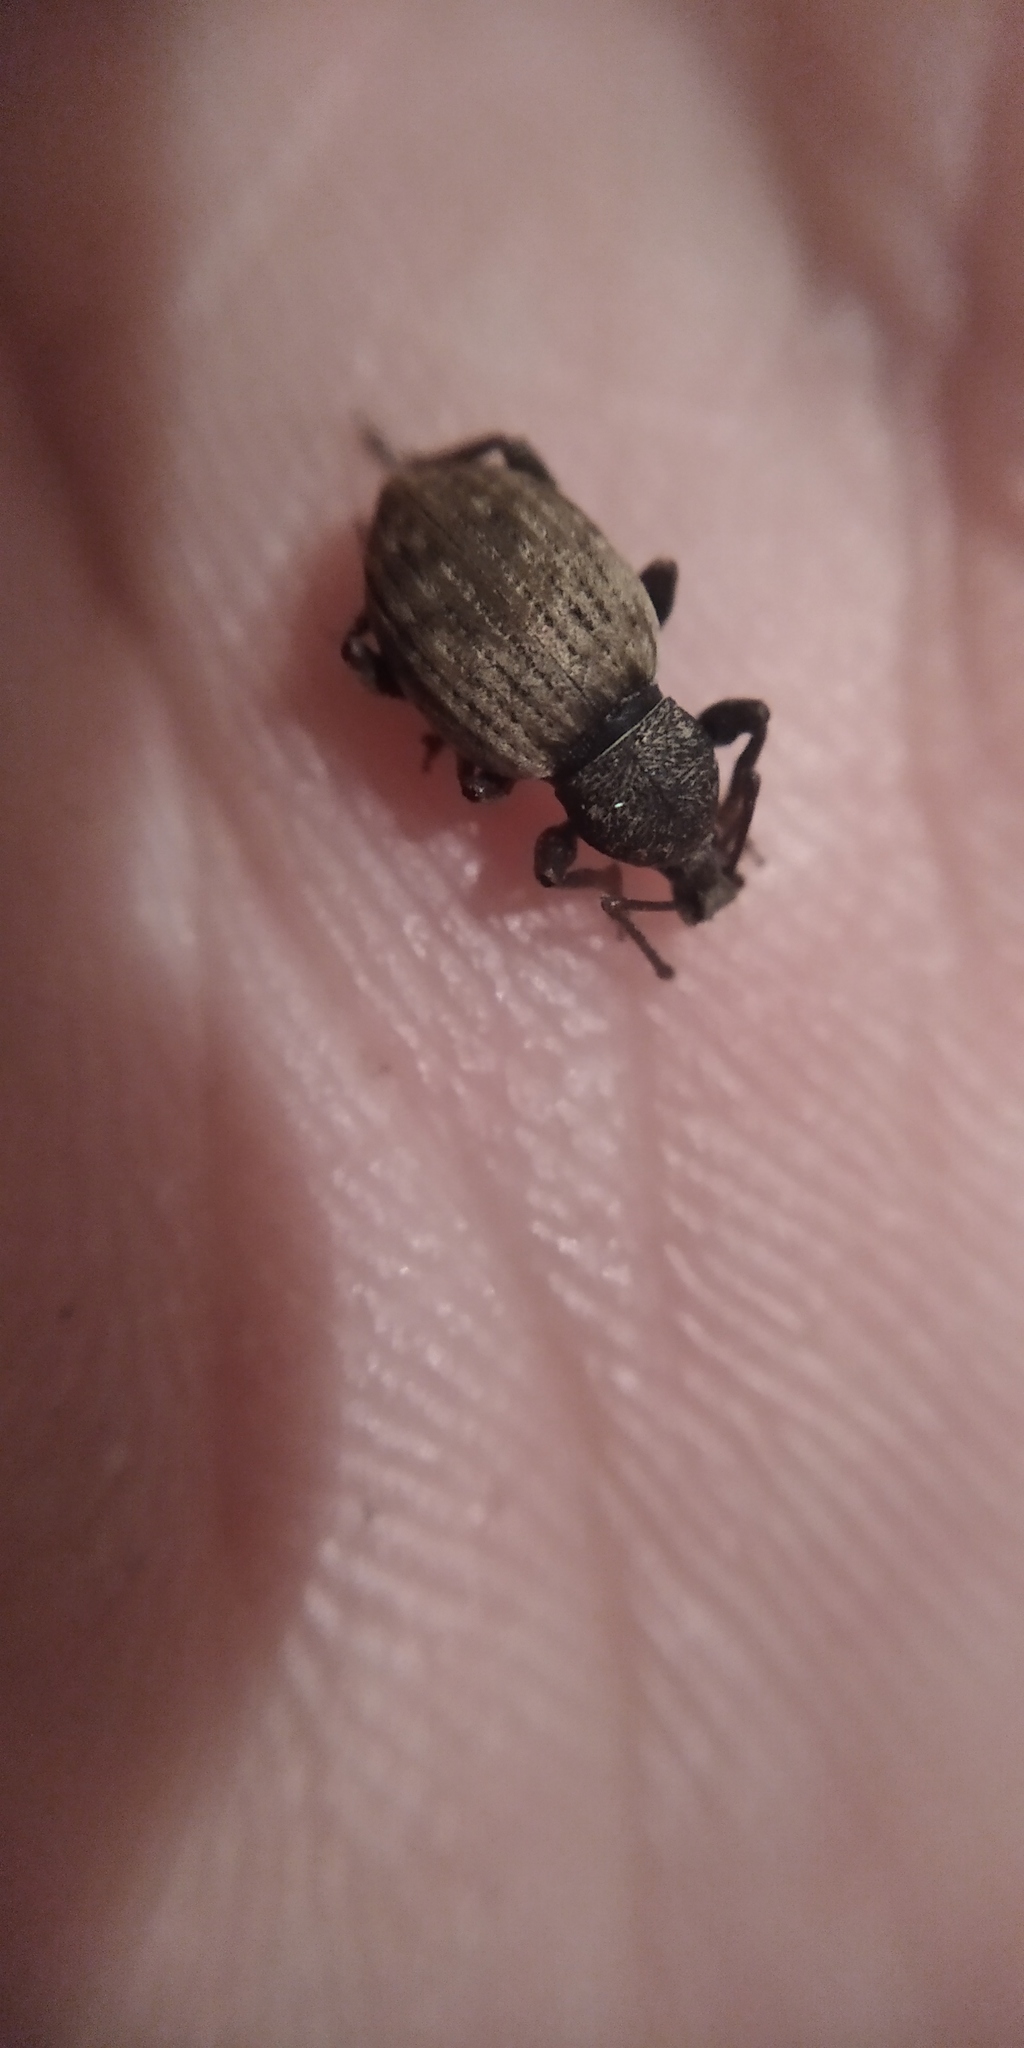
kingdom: Animalia
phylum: Arthropoda
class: Insecta
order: Coleoptera
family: Curculionidae
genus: Otiorhynchus
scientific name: Otiorhynchus raucus
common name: Weevil
